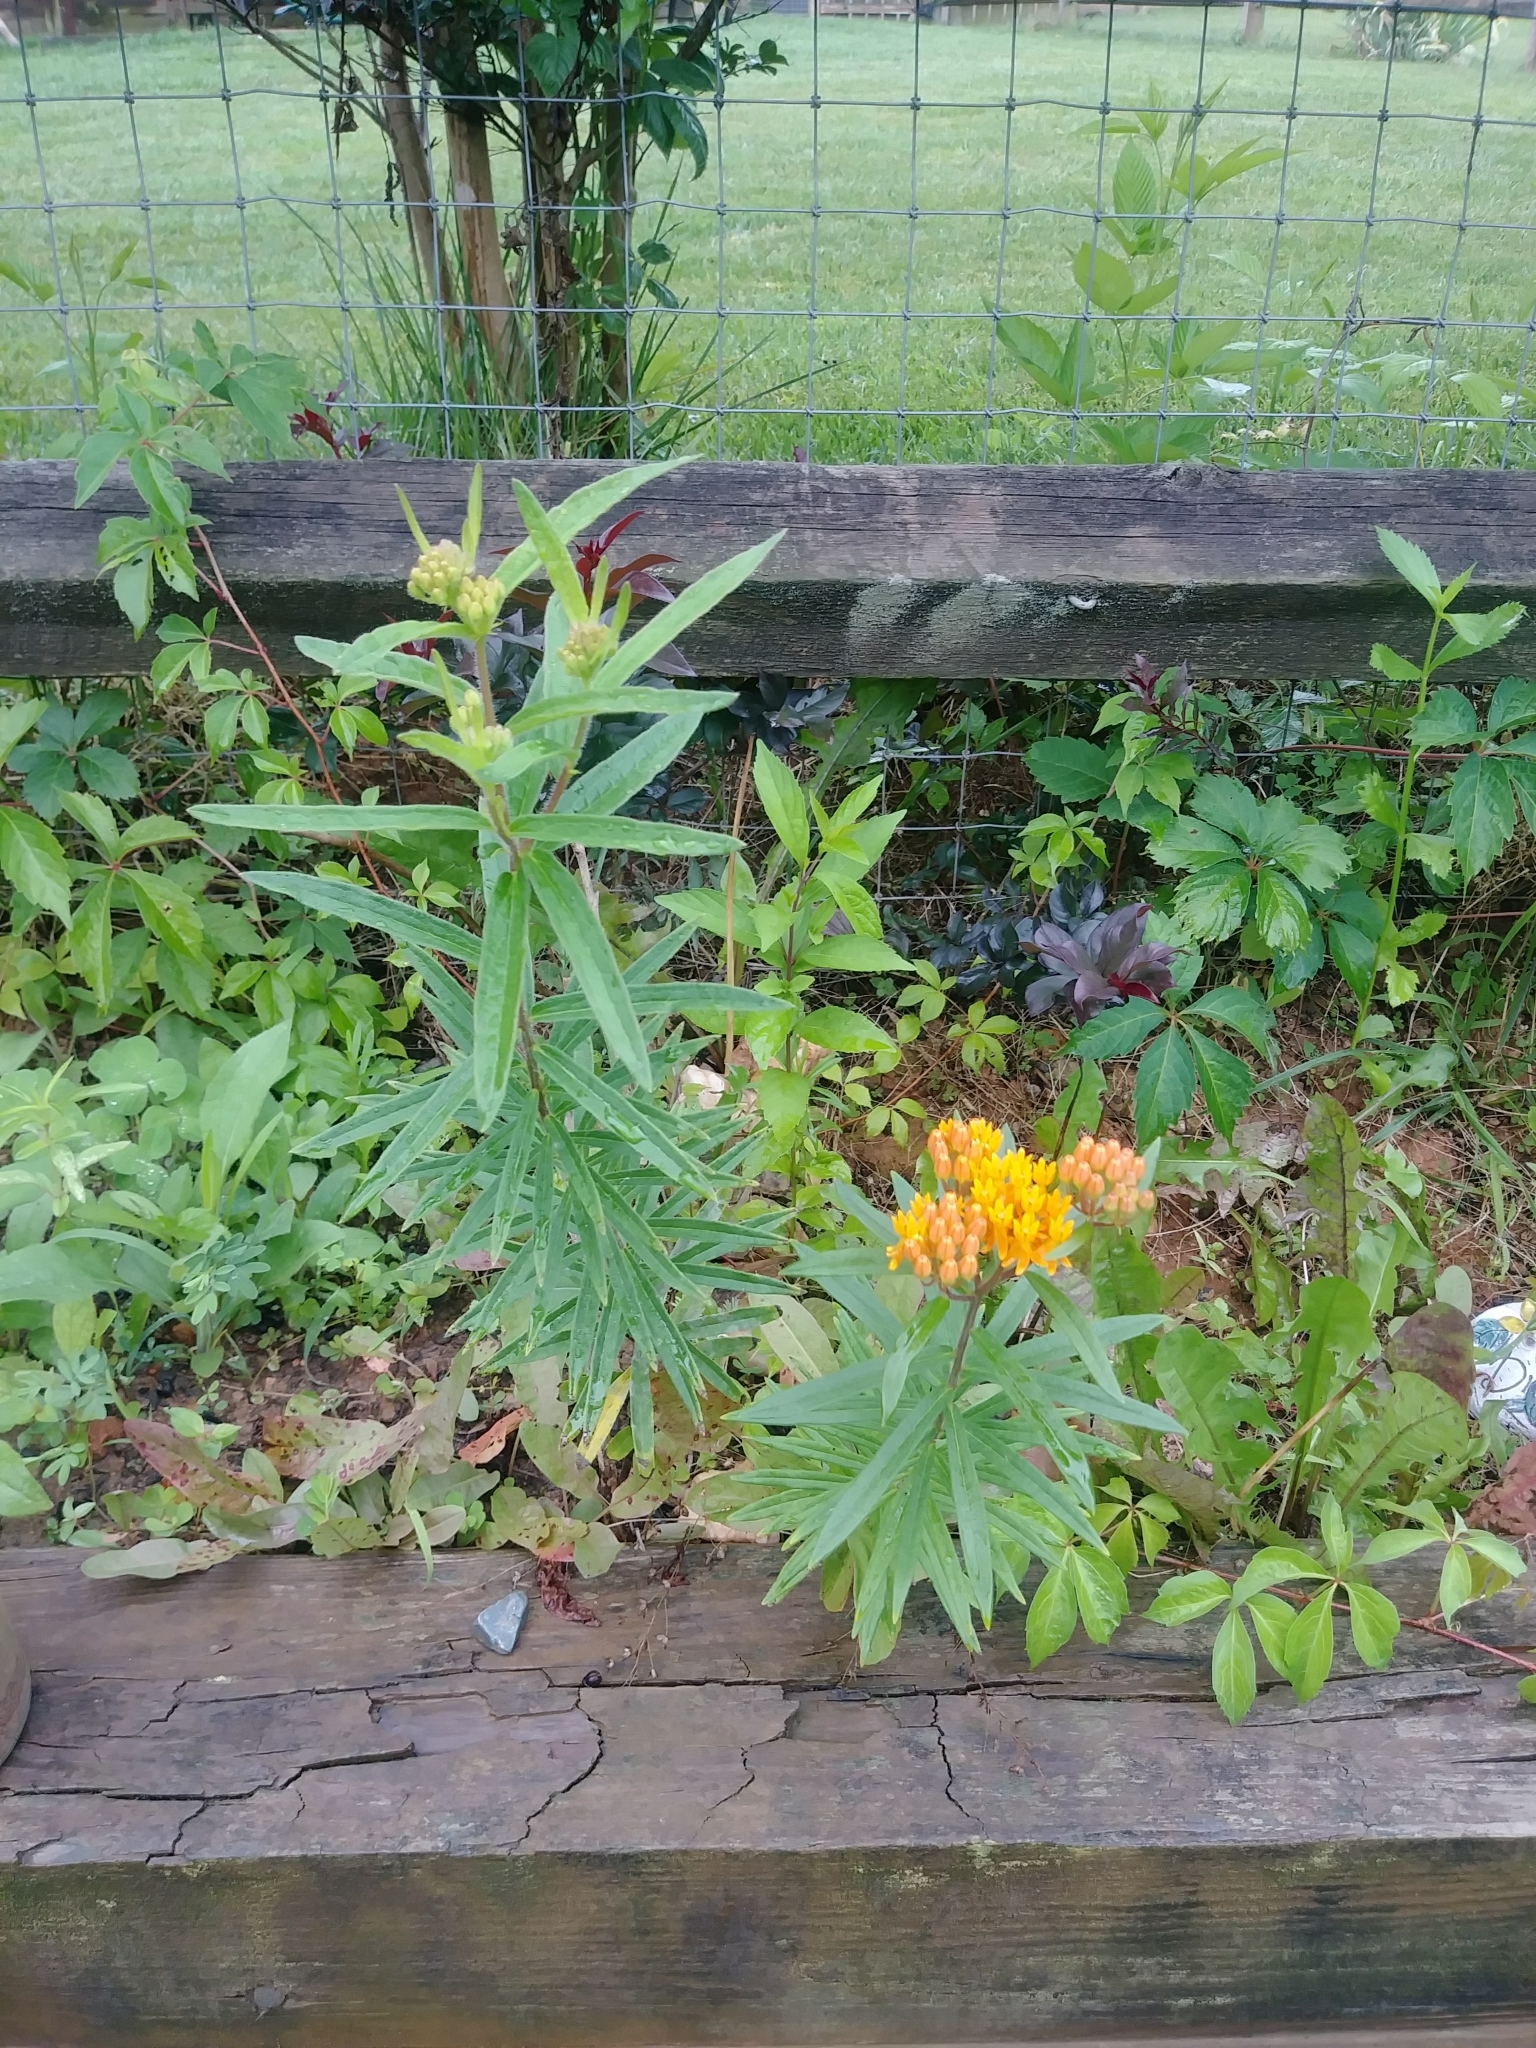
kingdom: Plantae
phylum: Tracheophyta
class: Magnoliopsida
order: Gentianales
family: Apocynaceae
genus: Asclepias
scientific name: Asclepias tuberosa
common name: Butterfly milkweed
